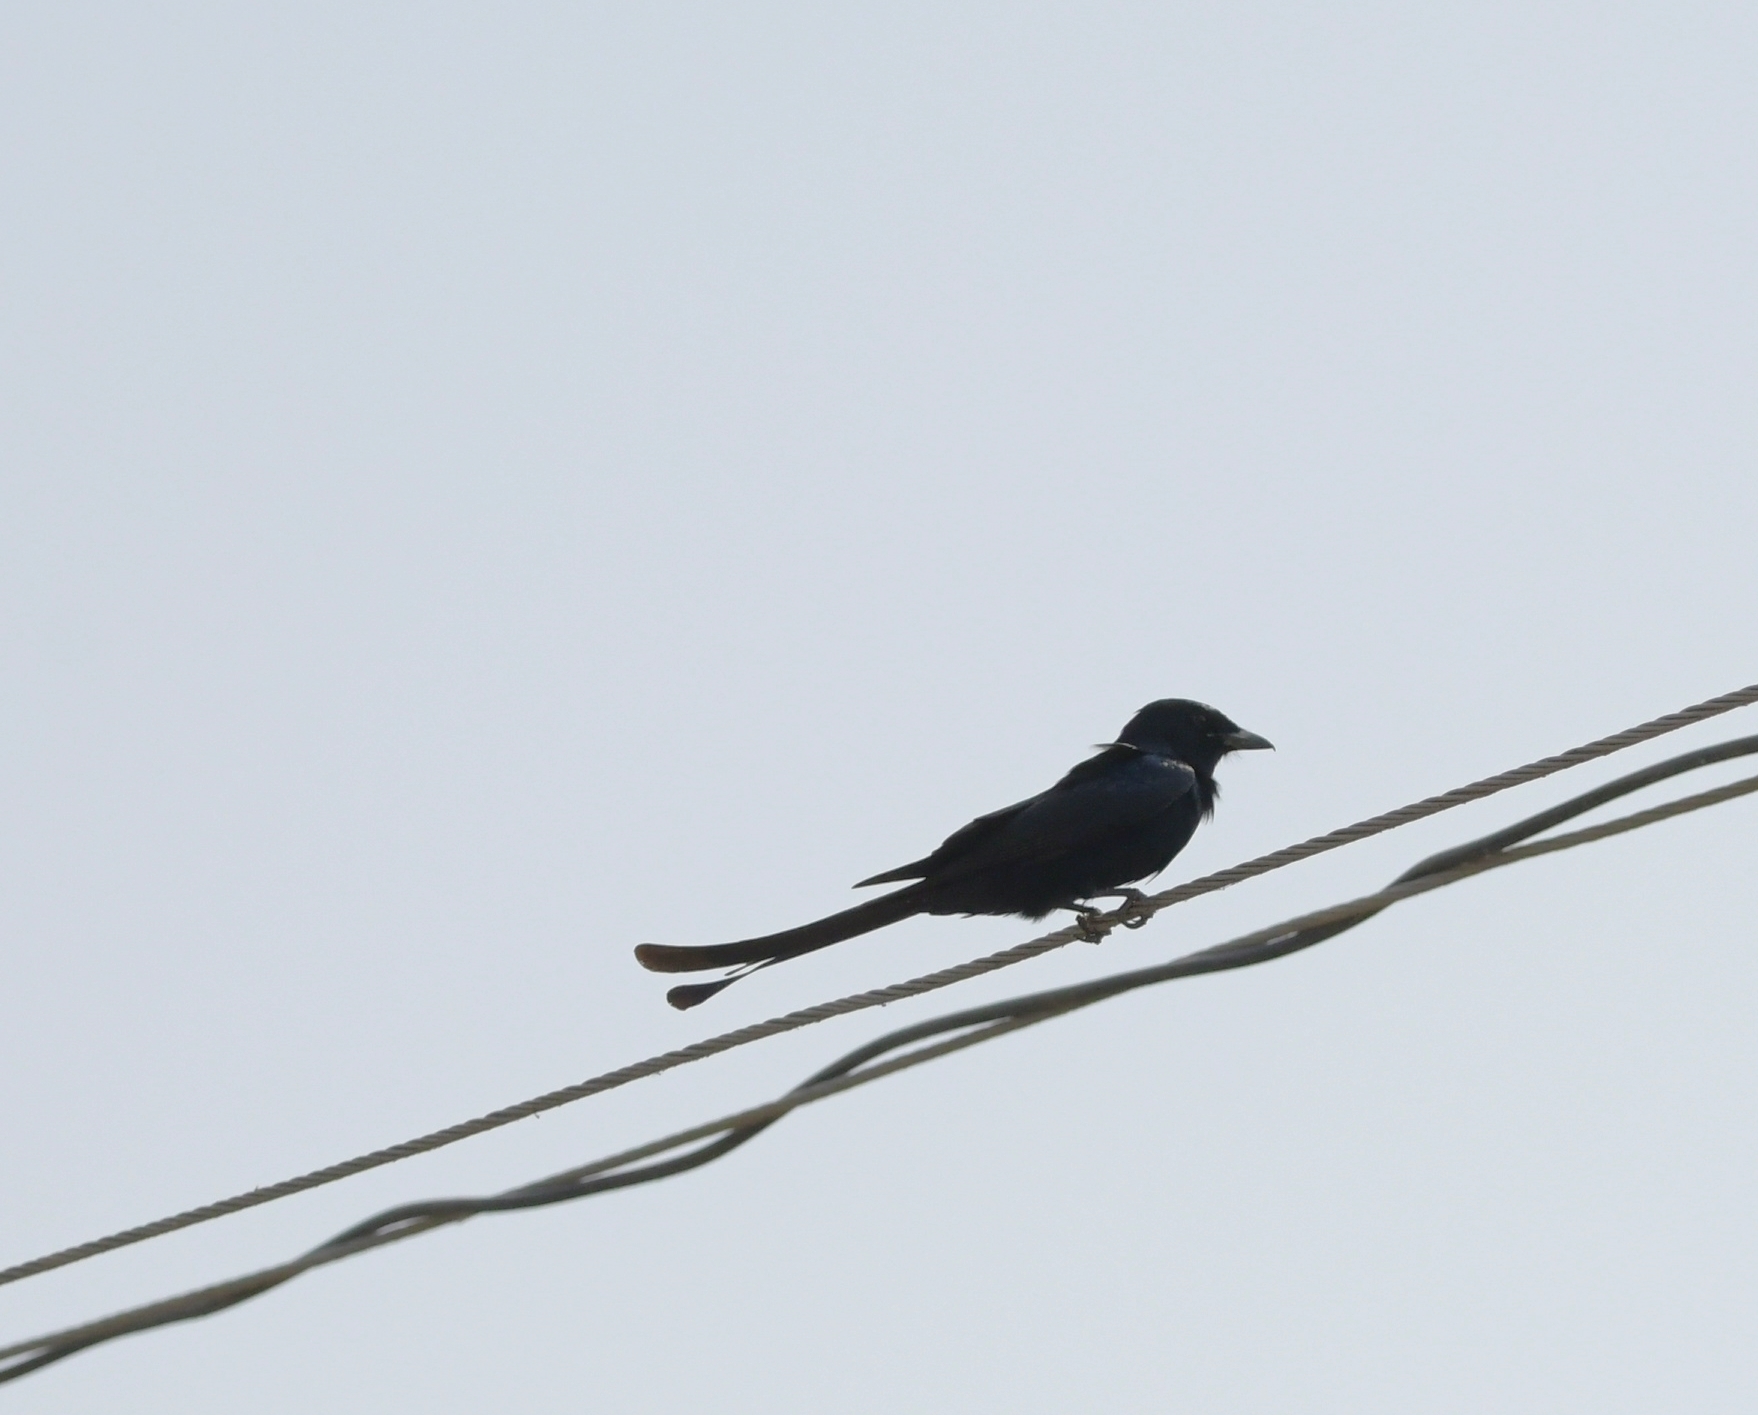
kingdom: Animalia
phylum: Chordata
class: Aves
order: Passeriformes
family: Dicruridae
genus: Dicrurus
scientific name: Dicrurus macrocercus
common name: Black drongo
